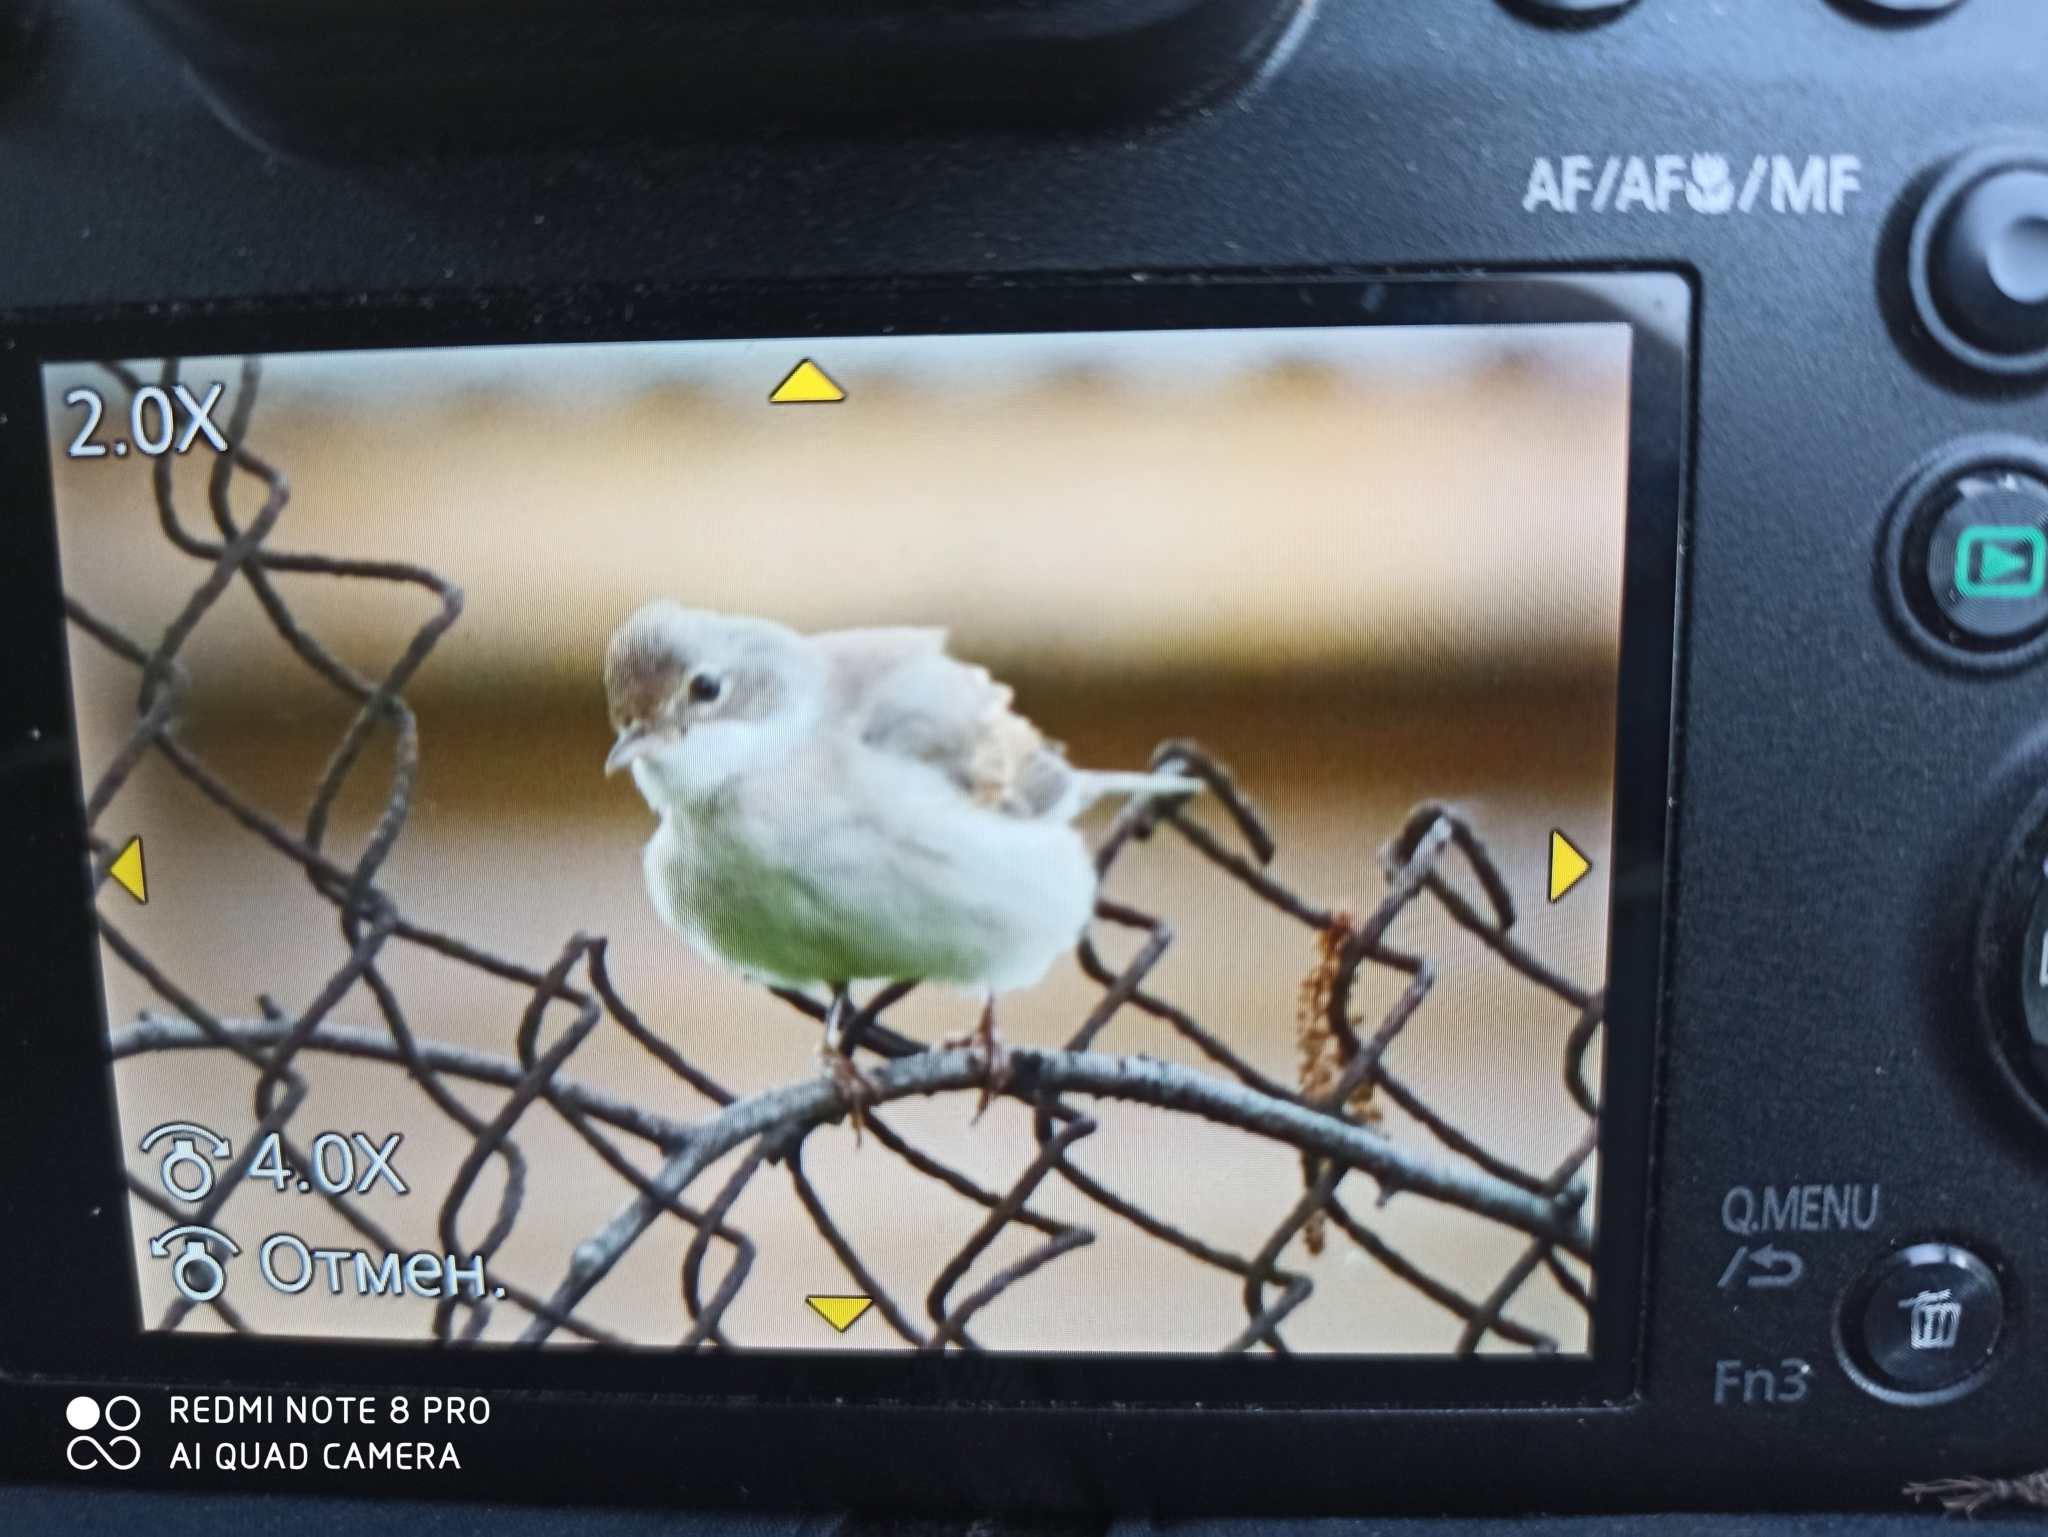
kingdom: Animalia
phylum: Chordata
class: Aves
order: Passeriformes
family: Sylviidae
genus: Sylvia
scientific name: Sylvia communis
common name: Common whitethroat
